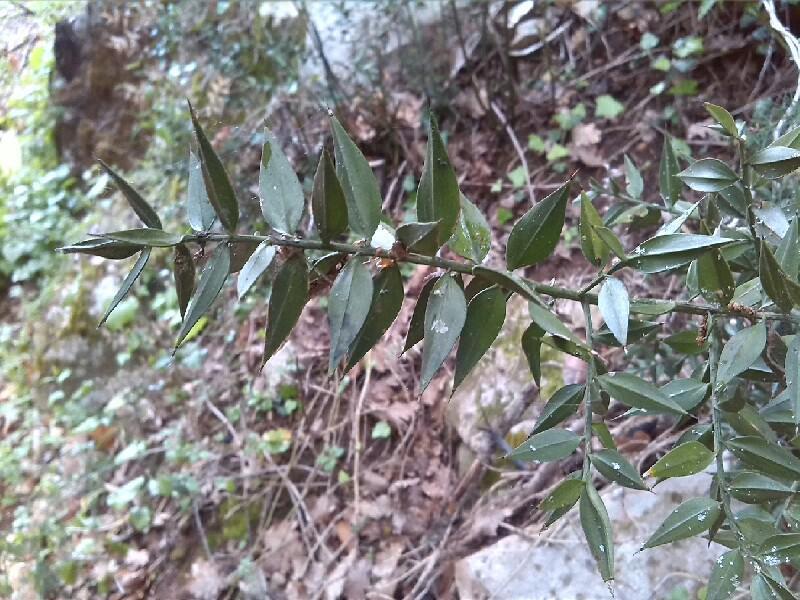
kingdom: Plantae
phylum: Tracheophyta
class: Liliopsida
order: Asparagales
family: Asparagaceae
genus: Ruscus
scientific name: Ruscus aculeatus
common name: Butcher's-broom
